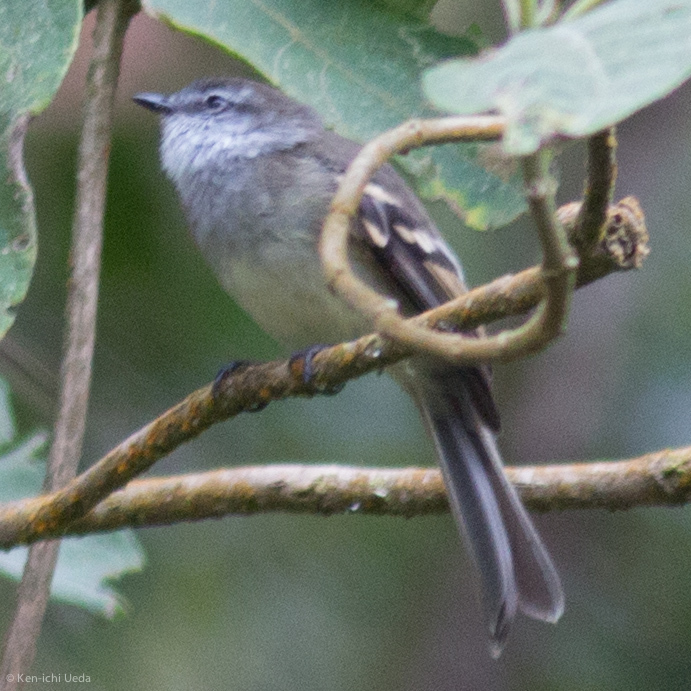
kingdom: Animalia
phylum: Chordata
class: Aves
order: Passeriformes
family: Tyrannidae
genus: Mecocerculus
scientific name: Mecocerculus leucophrys
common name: White-throated tyrannulet
